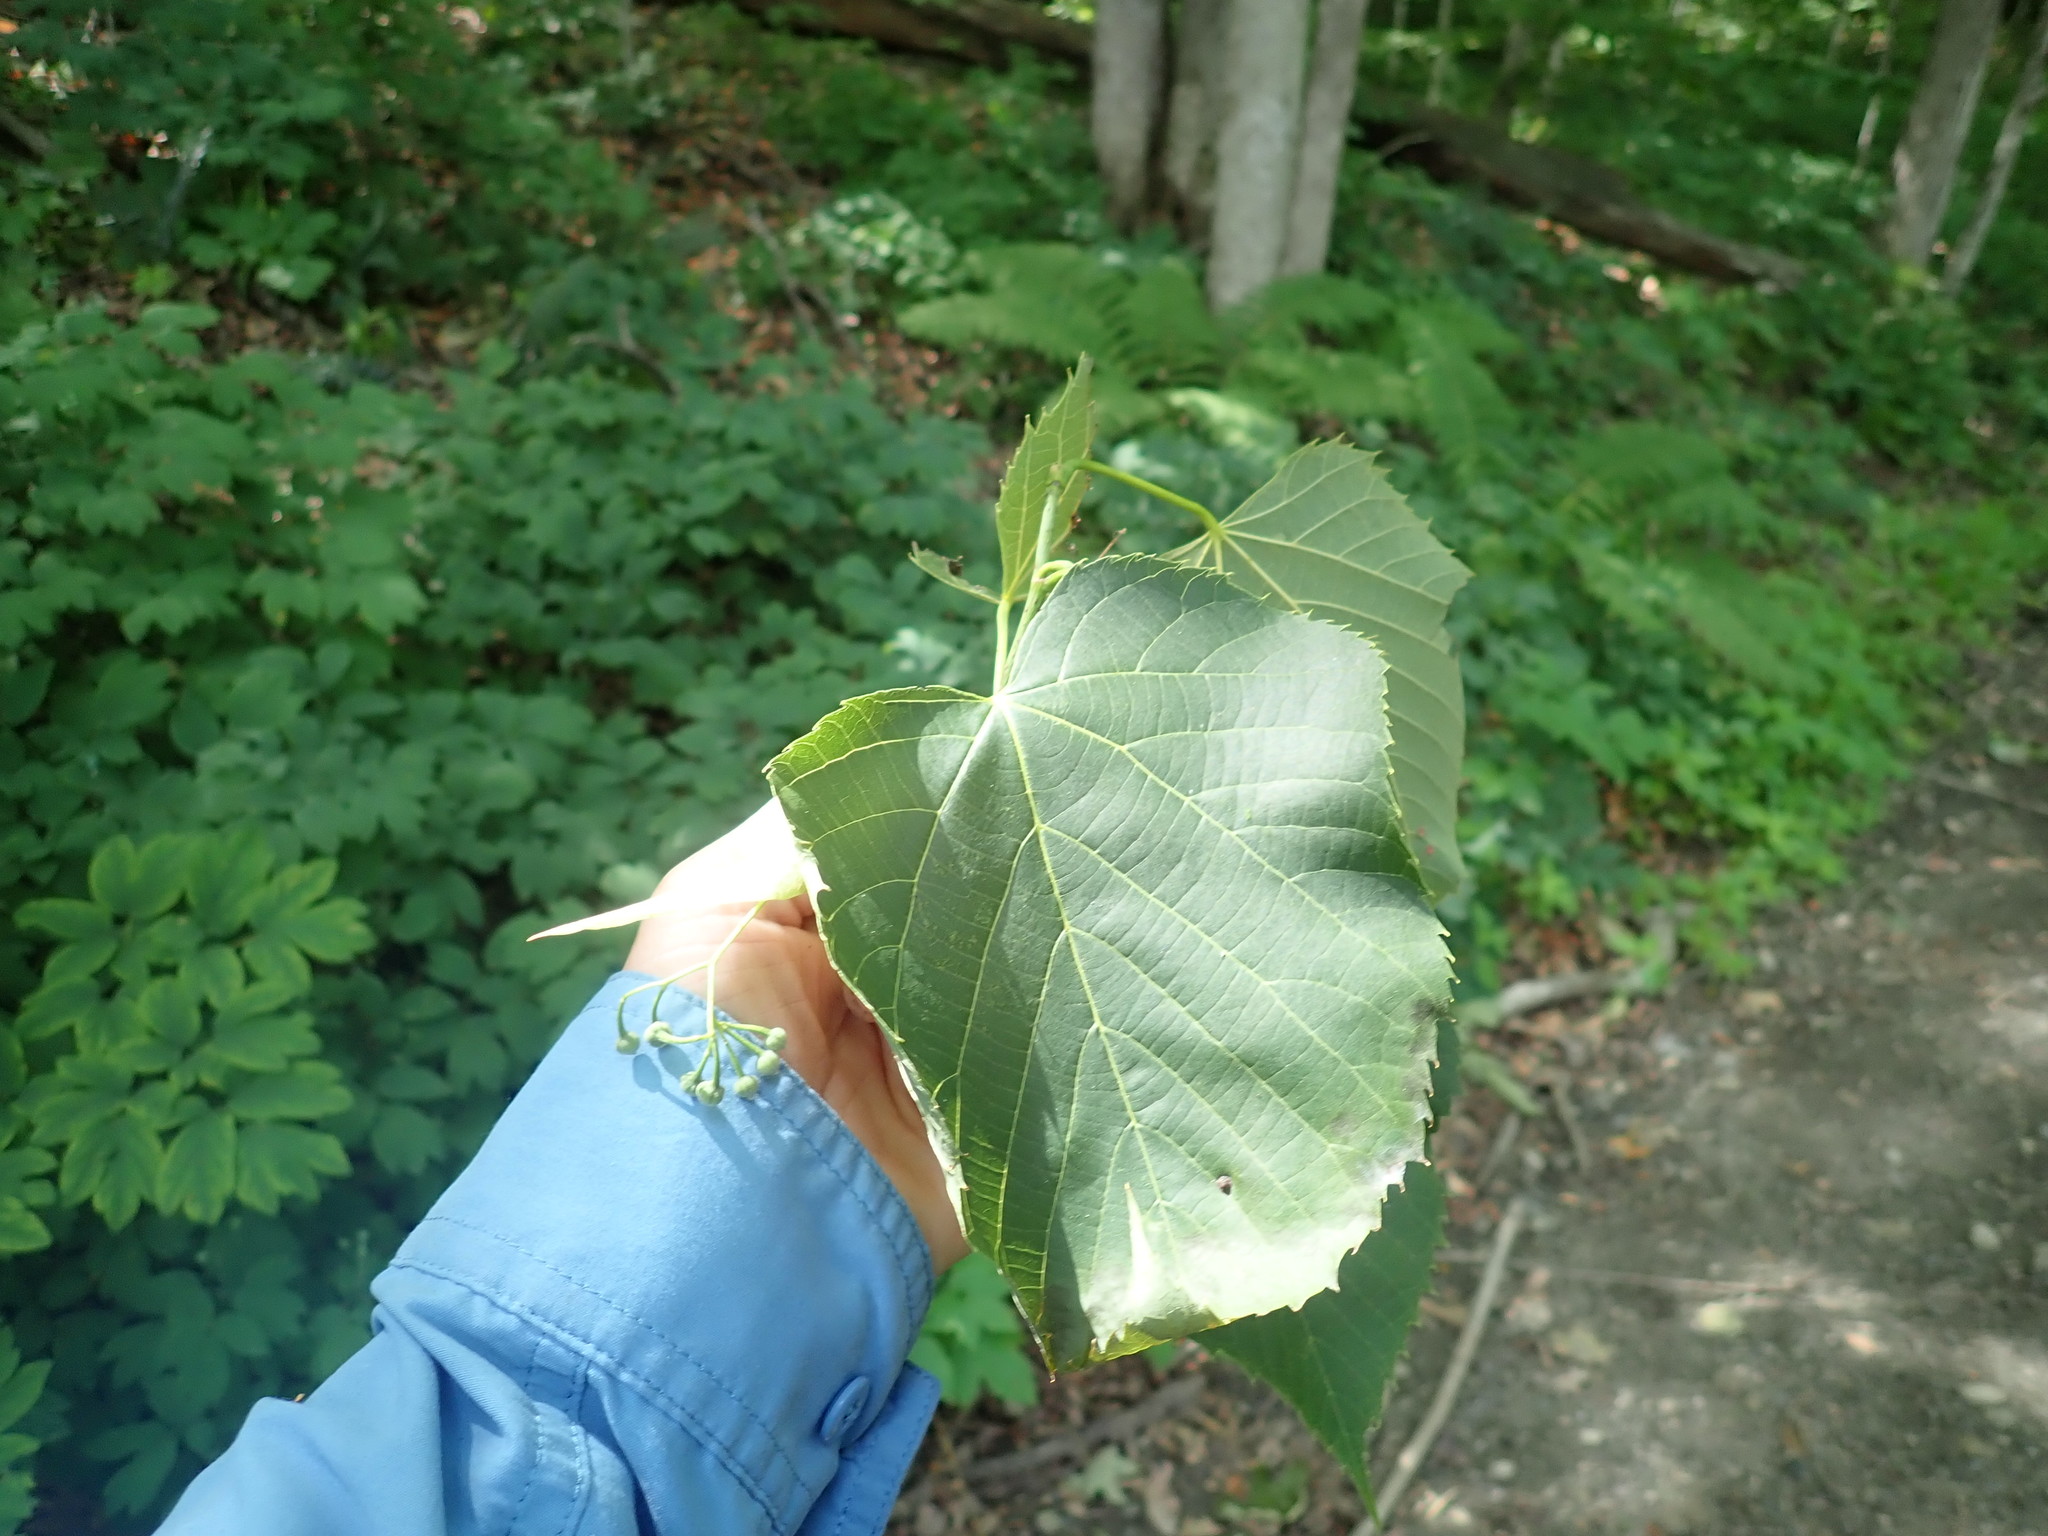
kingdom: Plantae
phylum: Tracheophyta
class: Magnoliopsida
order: Malvales
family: Malvaceae
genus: Tilia
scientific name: Tilia americana
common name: Basswood
